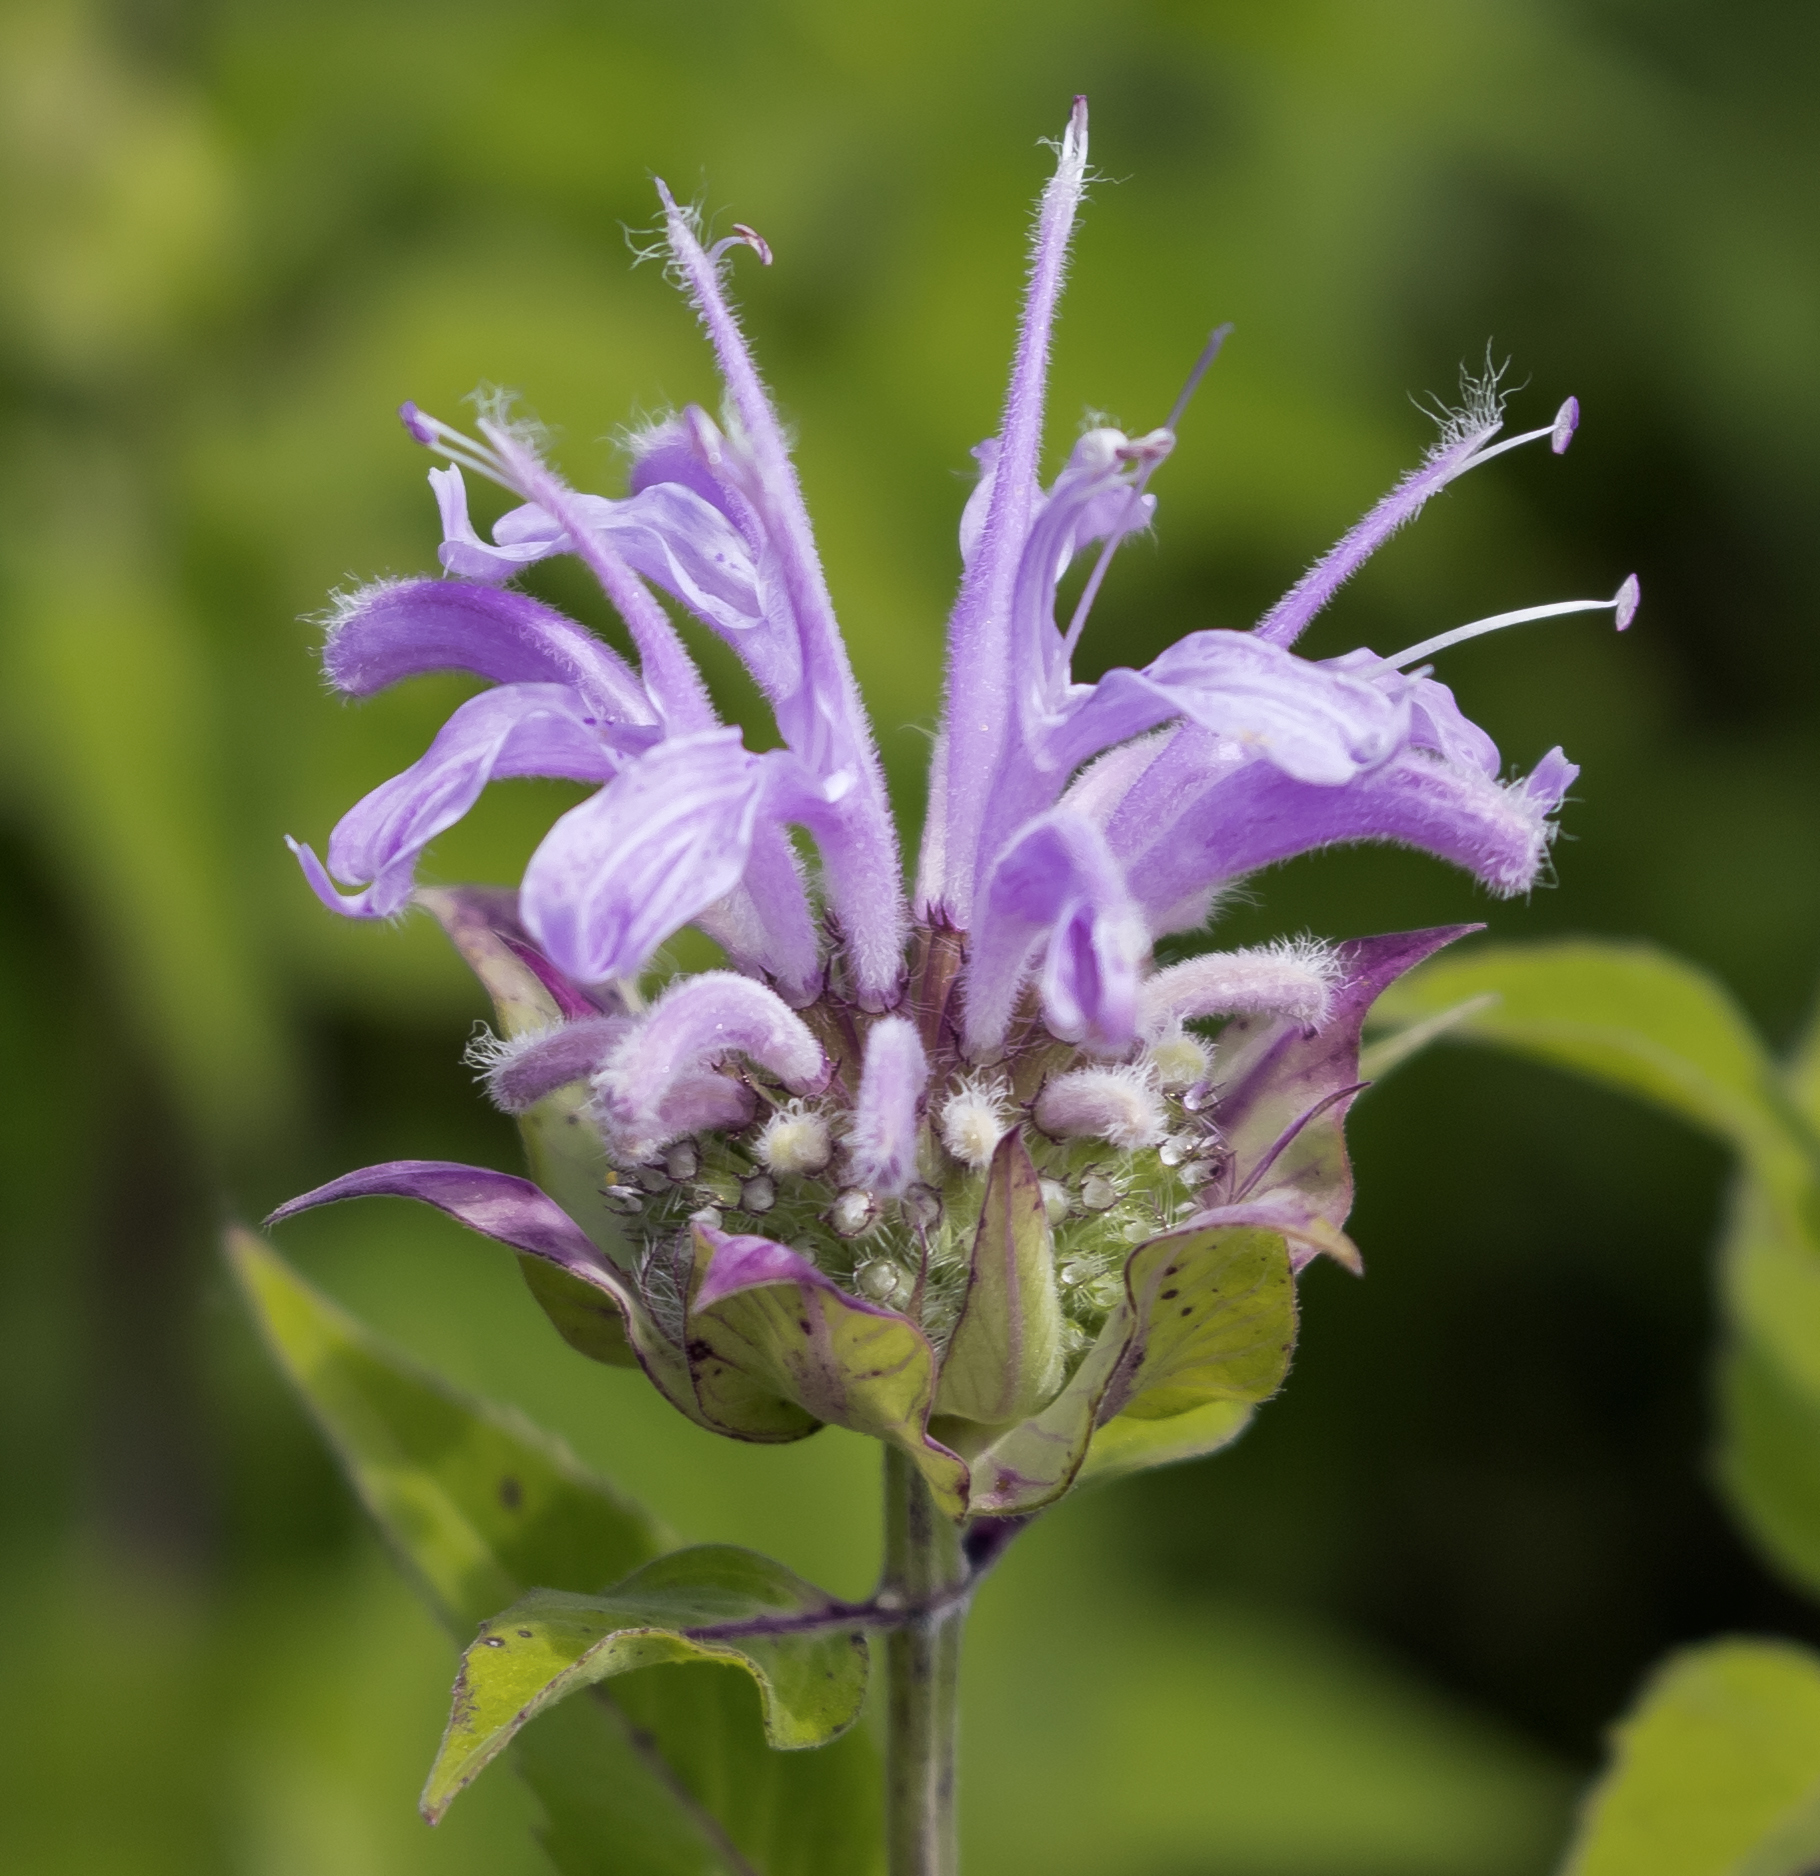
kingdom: Plantae
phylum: Tracheophyta
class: Magnoliopsida
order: Lamiales
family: Lamiaceae
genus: Monarda
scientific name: Monarda fistulosa
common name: Purple beebalm
